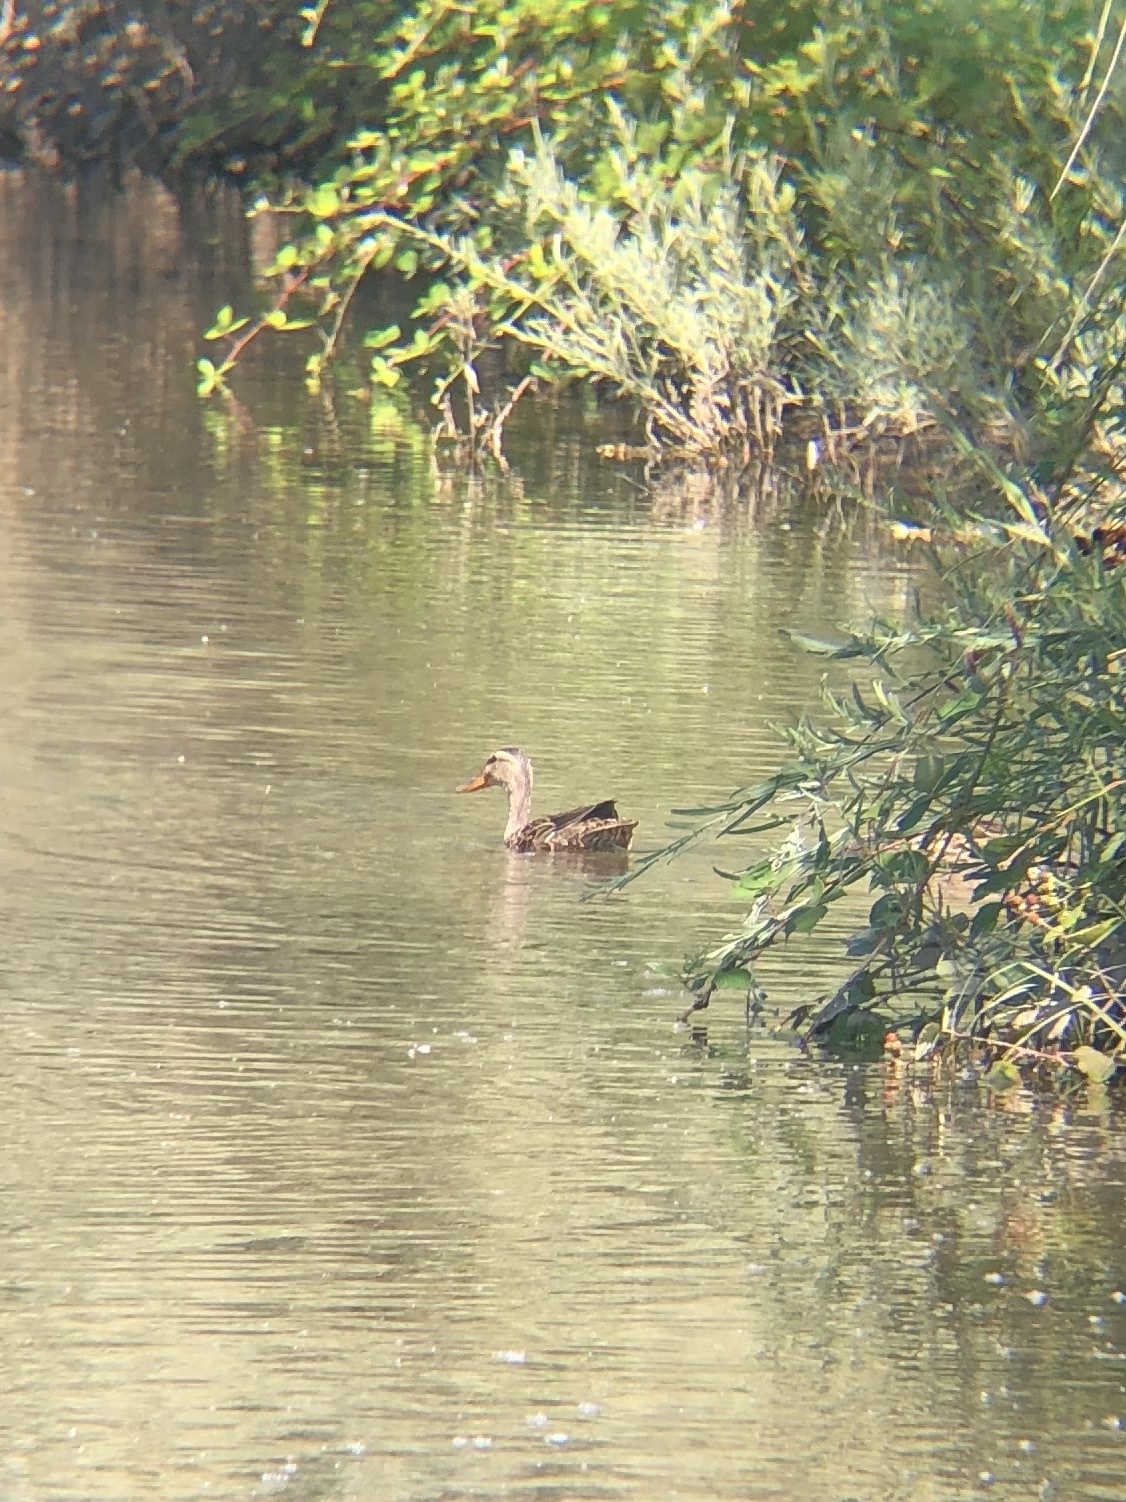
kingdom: Animalia
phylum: Chordata
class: Aves
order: Anseriformes
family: Anatidae
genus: Anas
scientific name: Anas platyrhynchos
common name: Mallard
